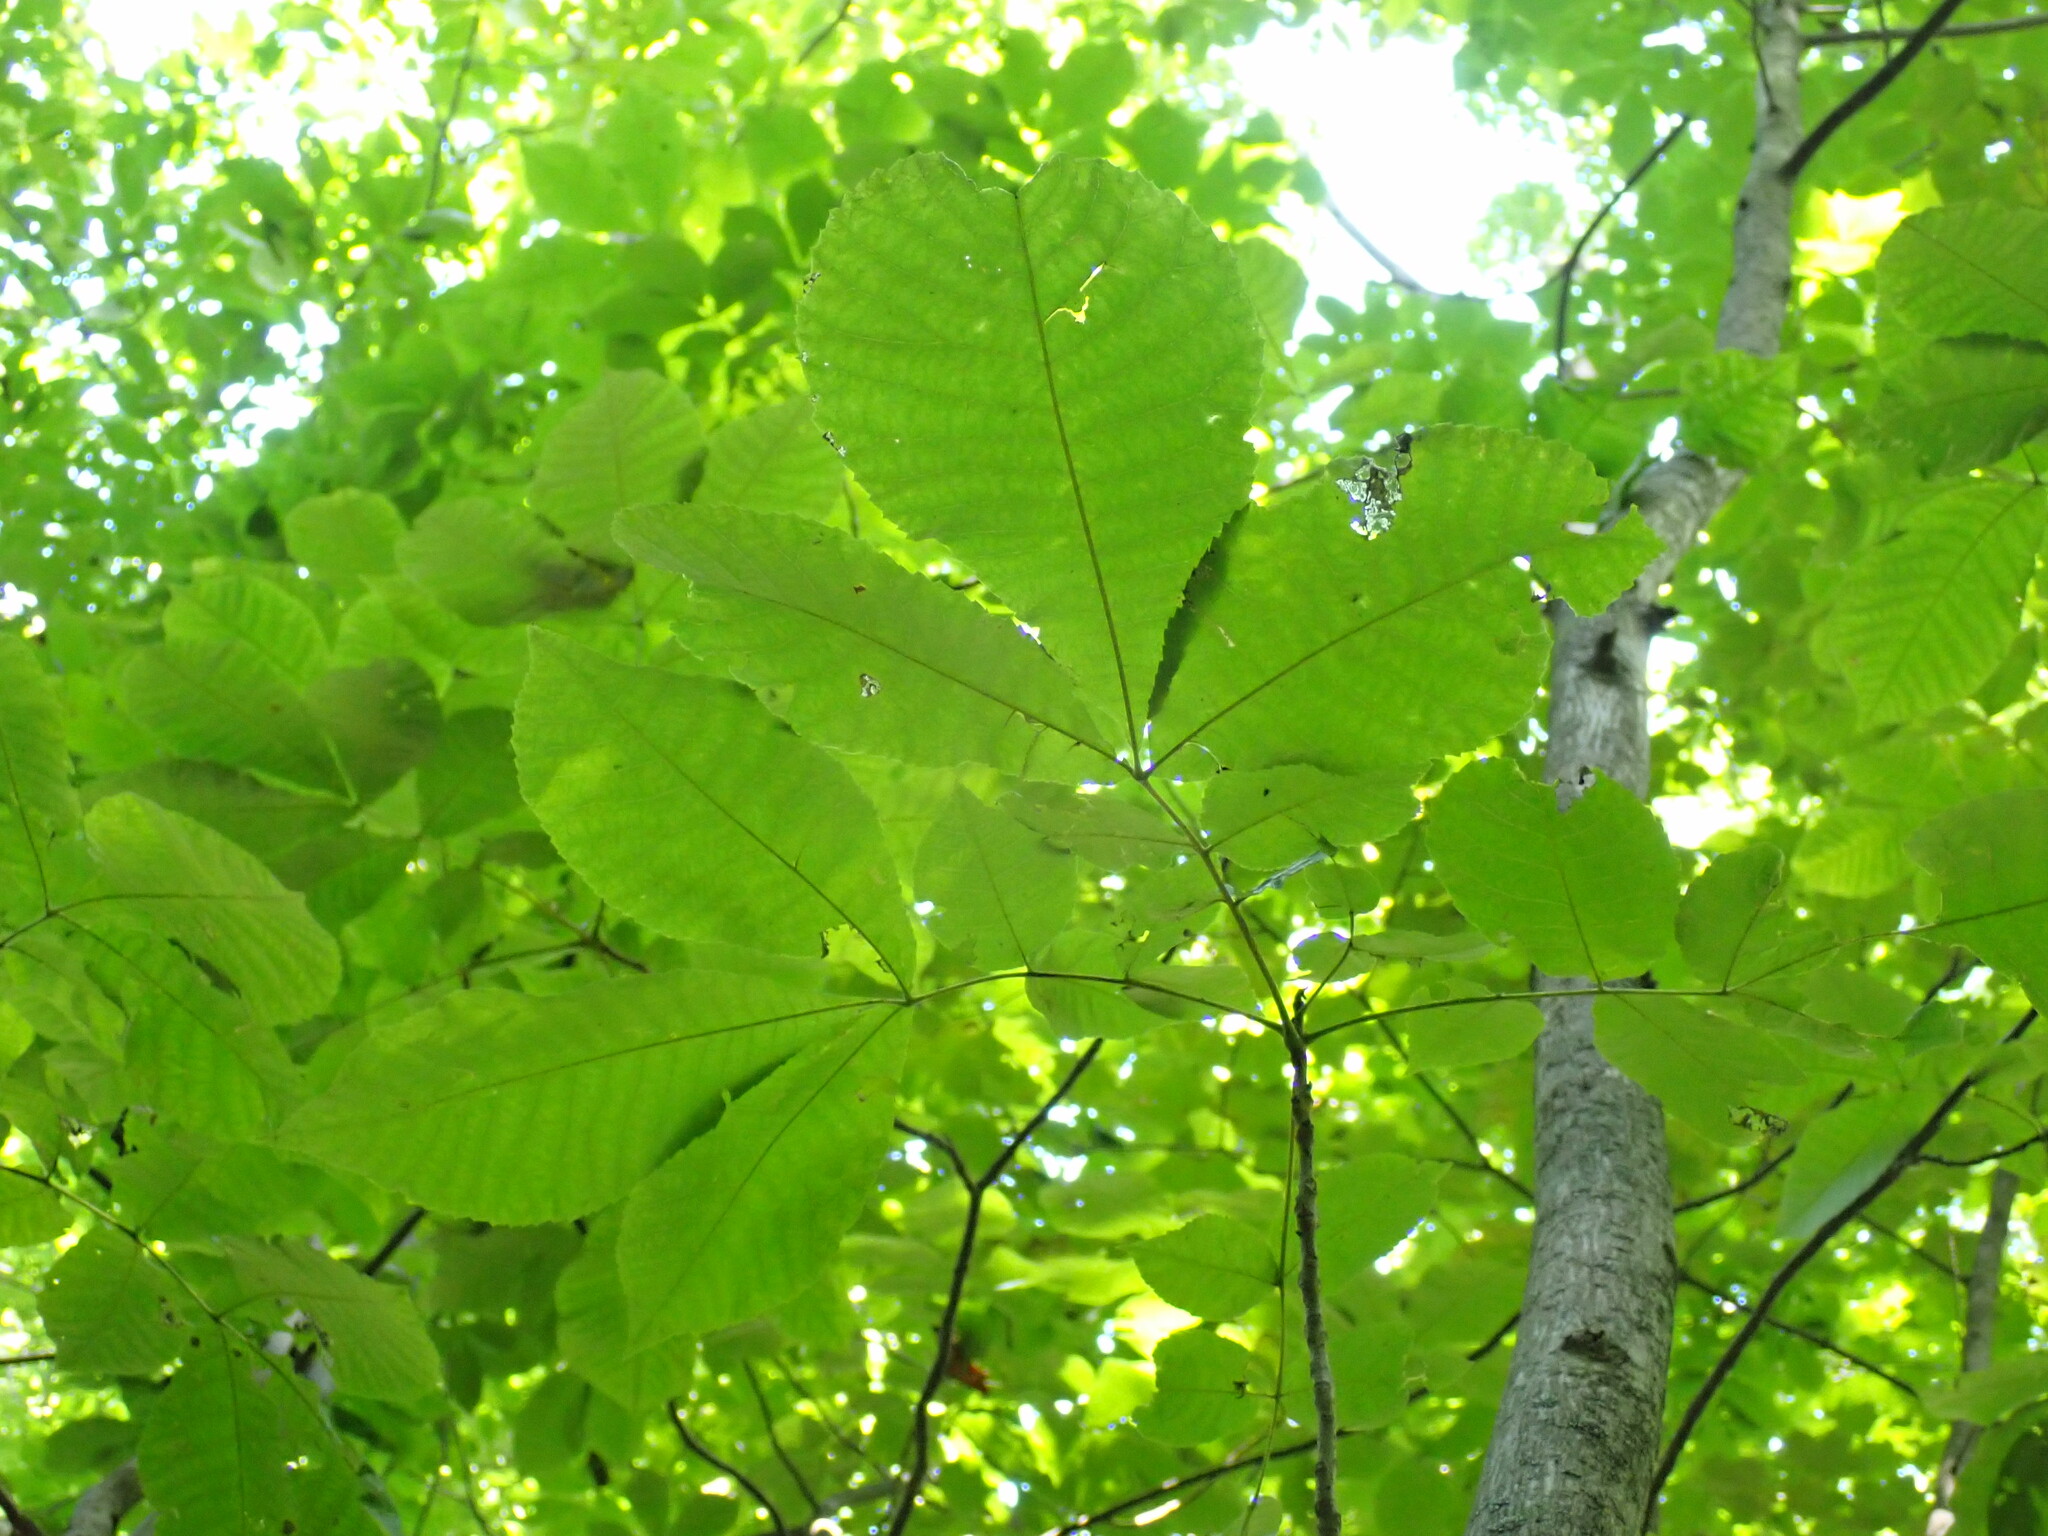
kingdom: Plantae
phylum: Tracheophyta
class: Magnoliopsida
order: Fagales
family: Juglandaceae
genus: Carya
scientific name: Carya ovata
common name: Shagbark hickory
